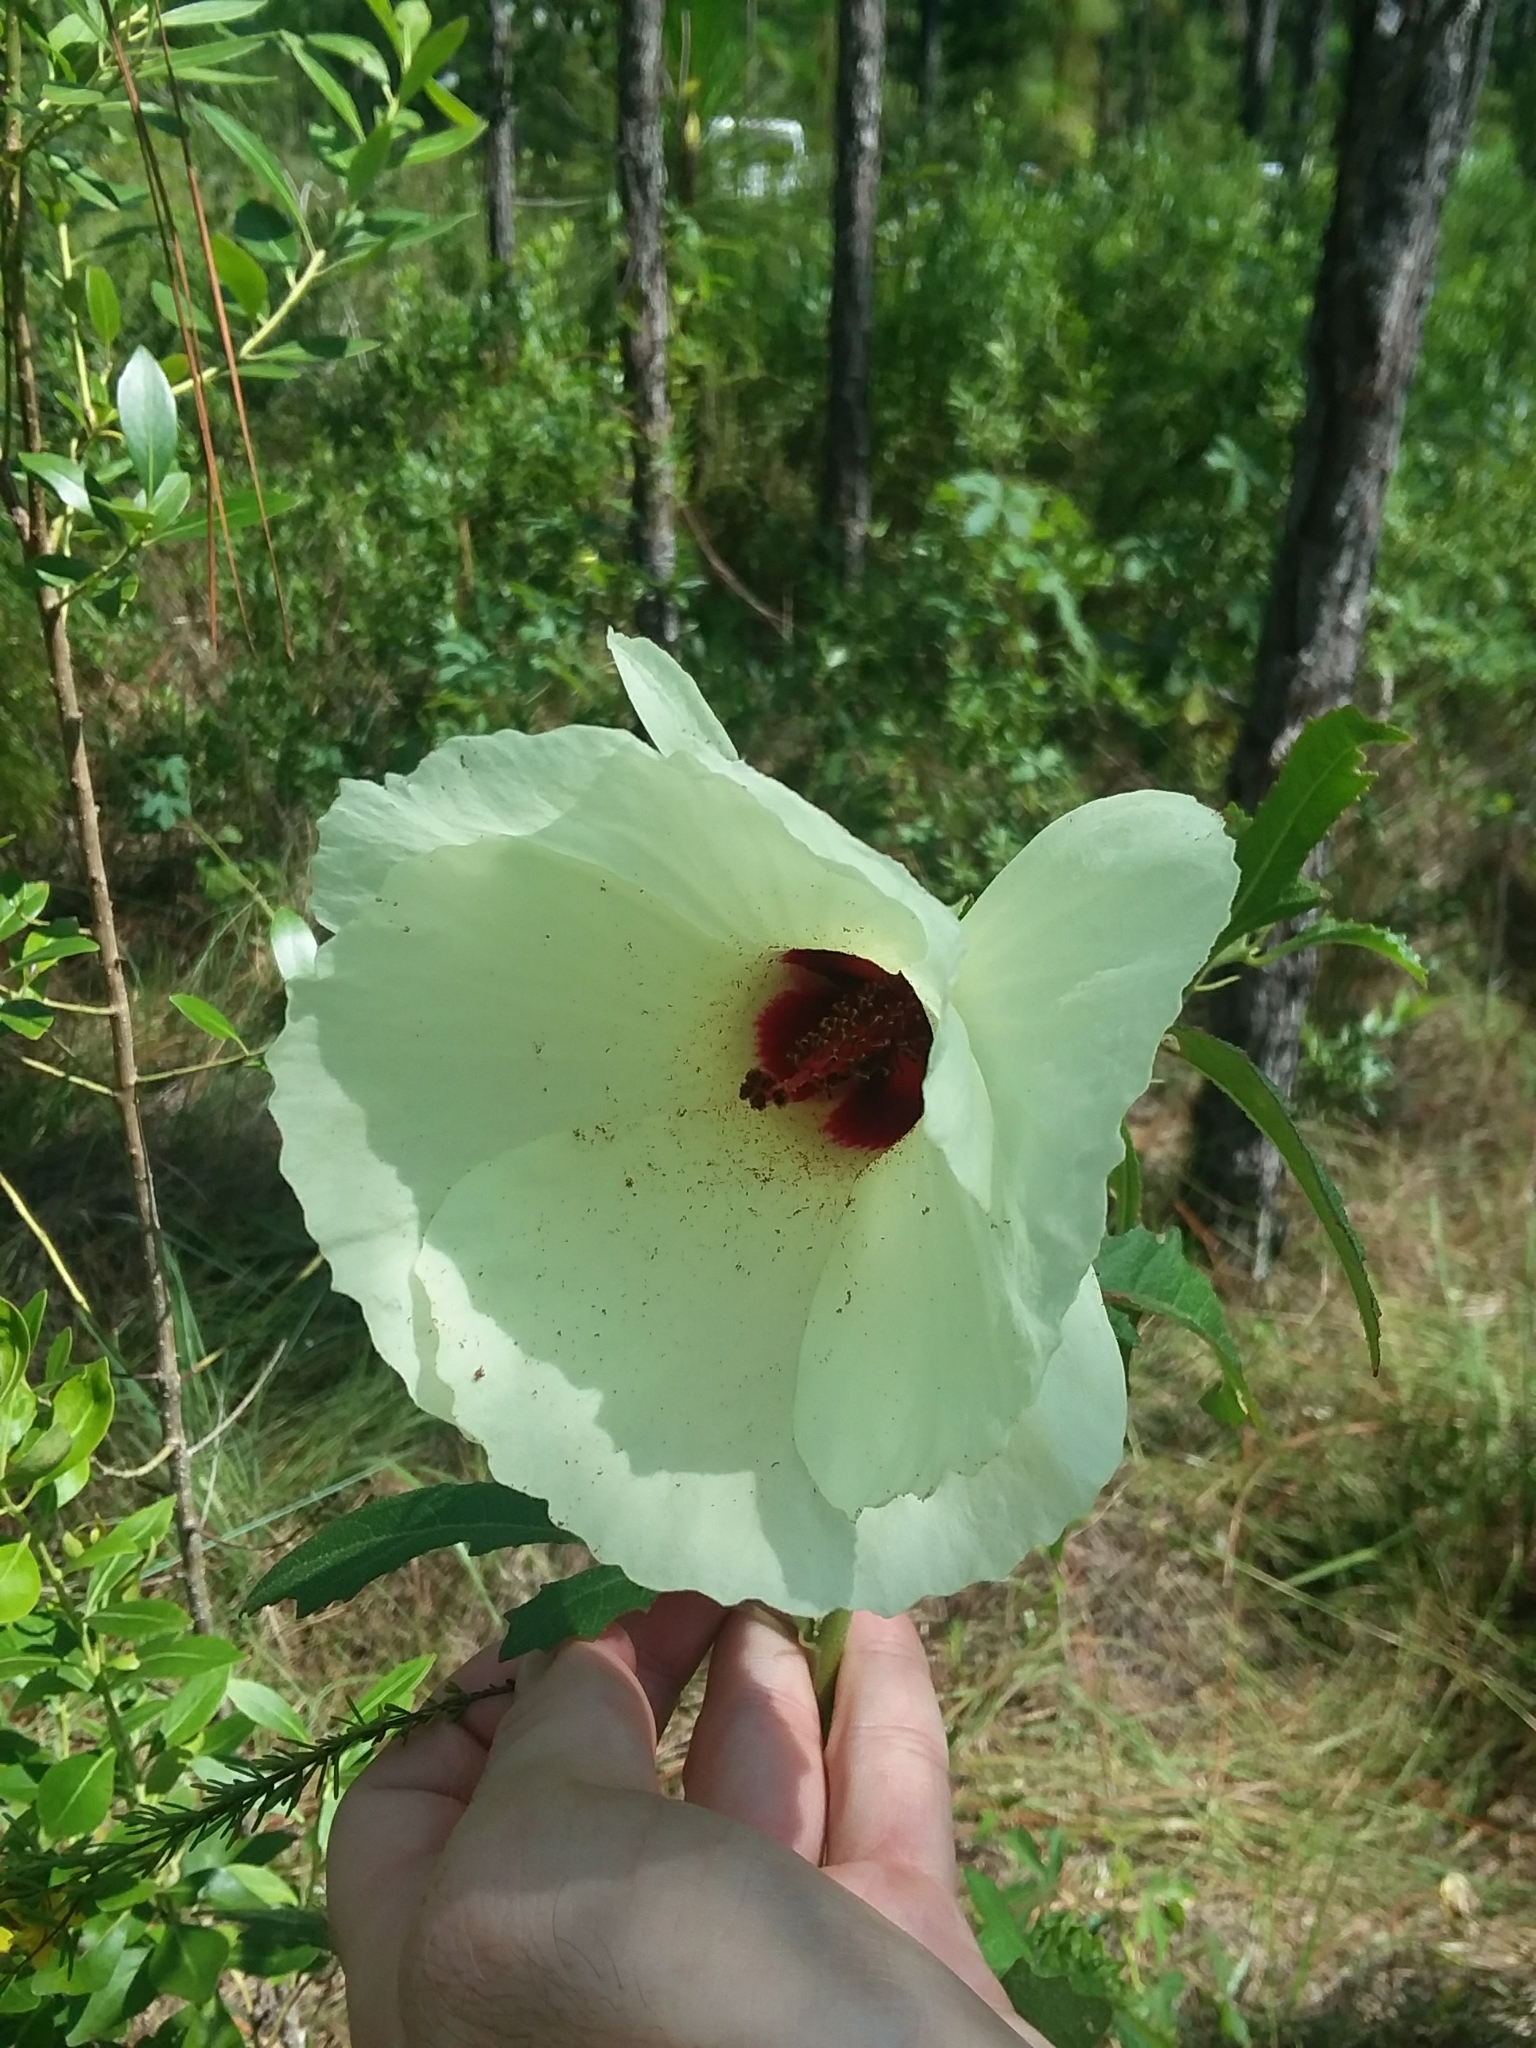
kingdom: Plantae
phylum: Tracheophyta
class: Magnoliopsida
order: Malvales
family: Malvaceae
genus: Hibiscus
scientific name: Hibiscus aculeatus
